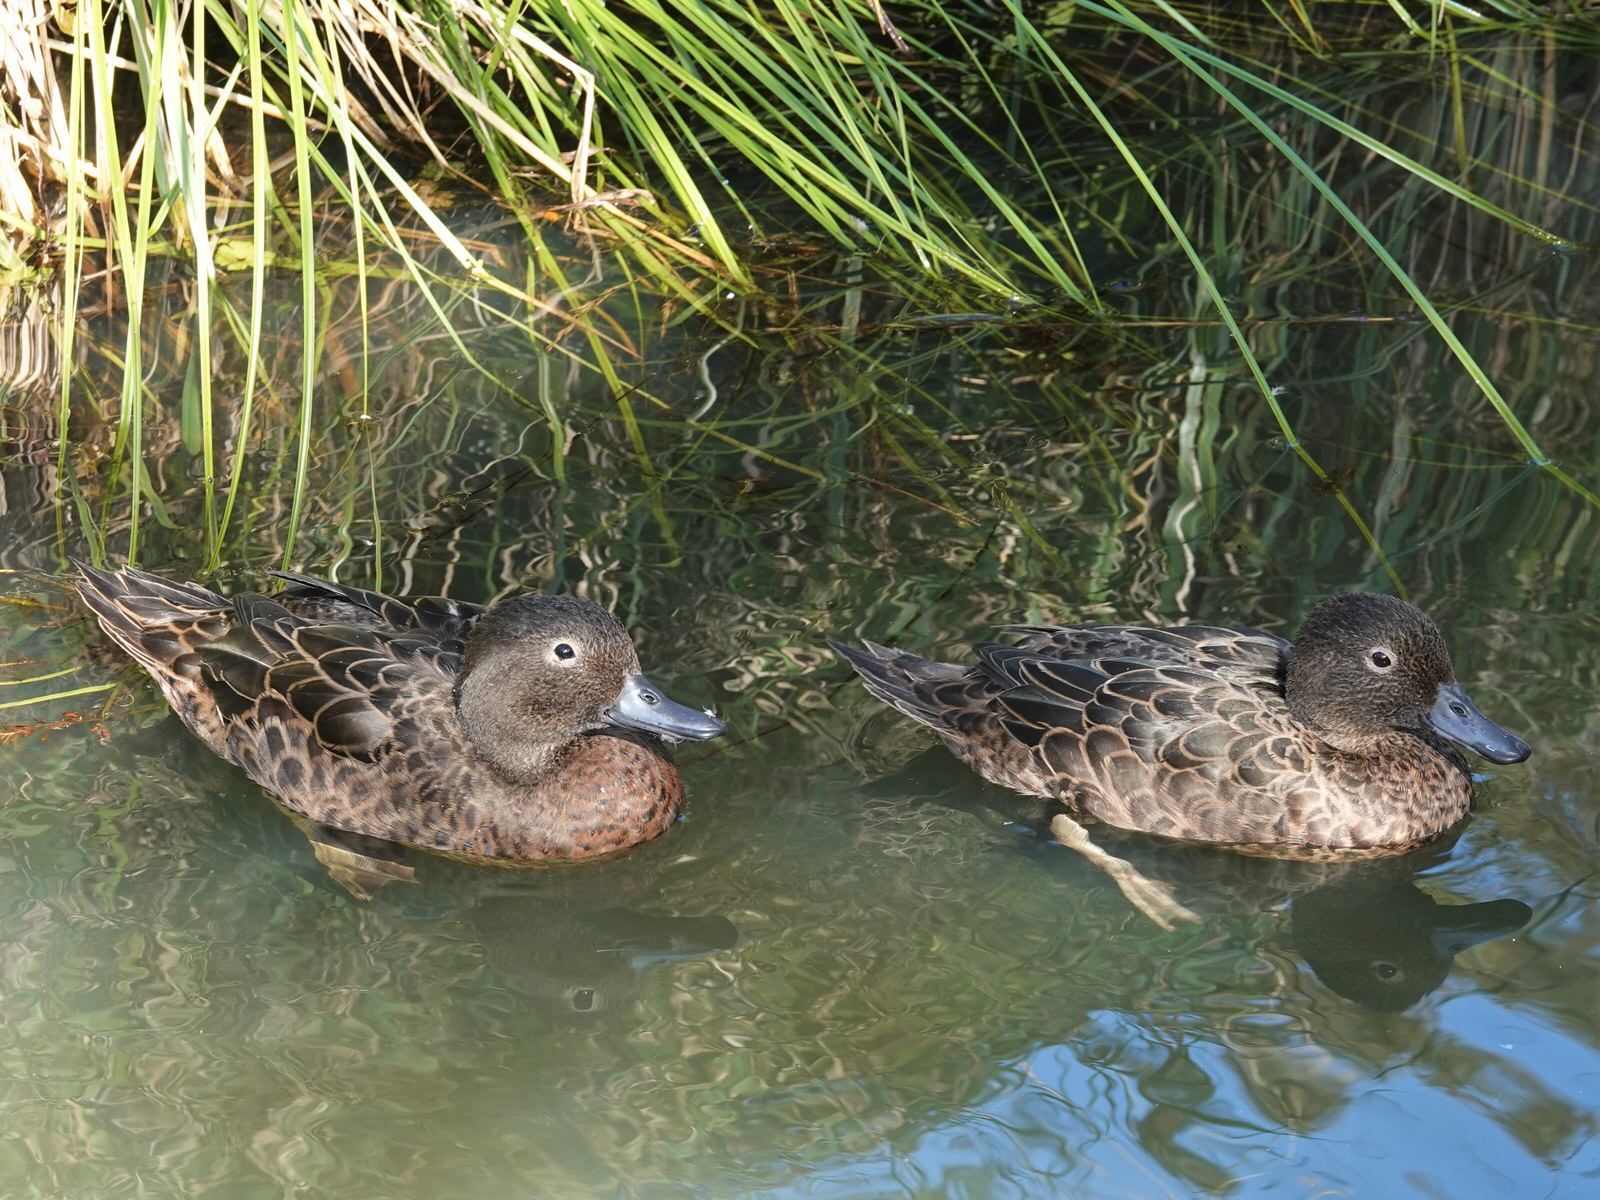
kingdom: Animalia
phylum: Chordata
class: Aves
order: Anseriformes
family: Anatidae
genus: Anas
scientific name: Anas chlorotis
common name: Brown teal
